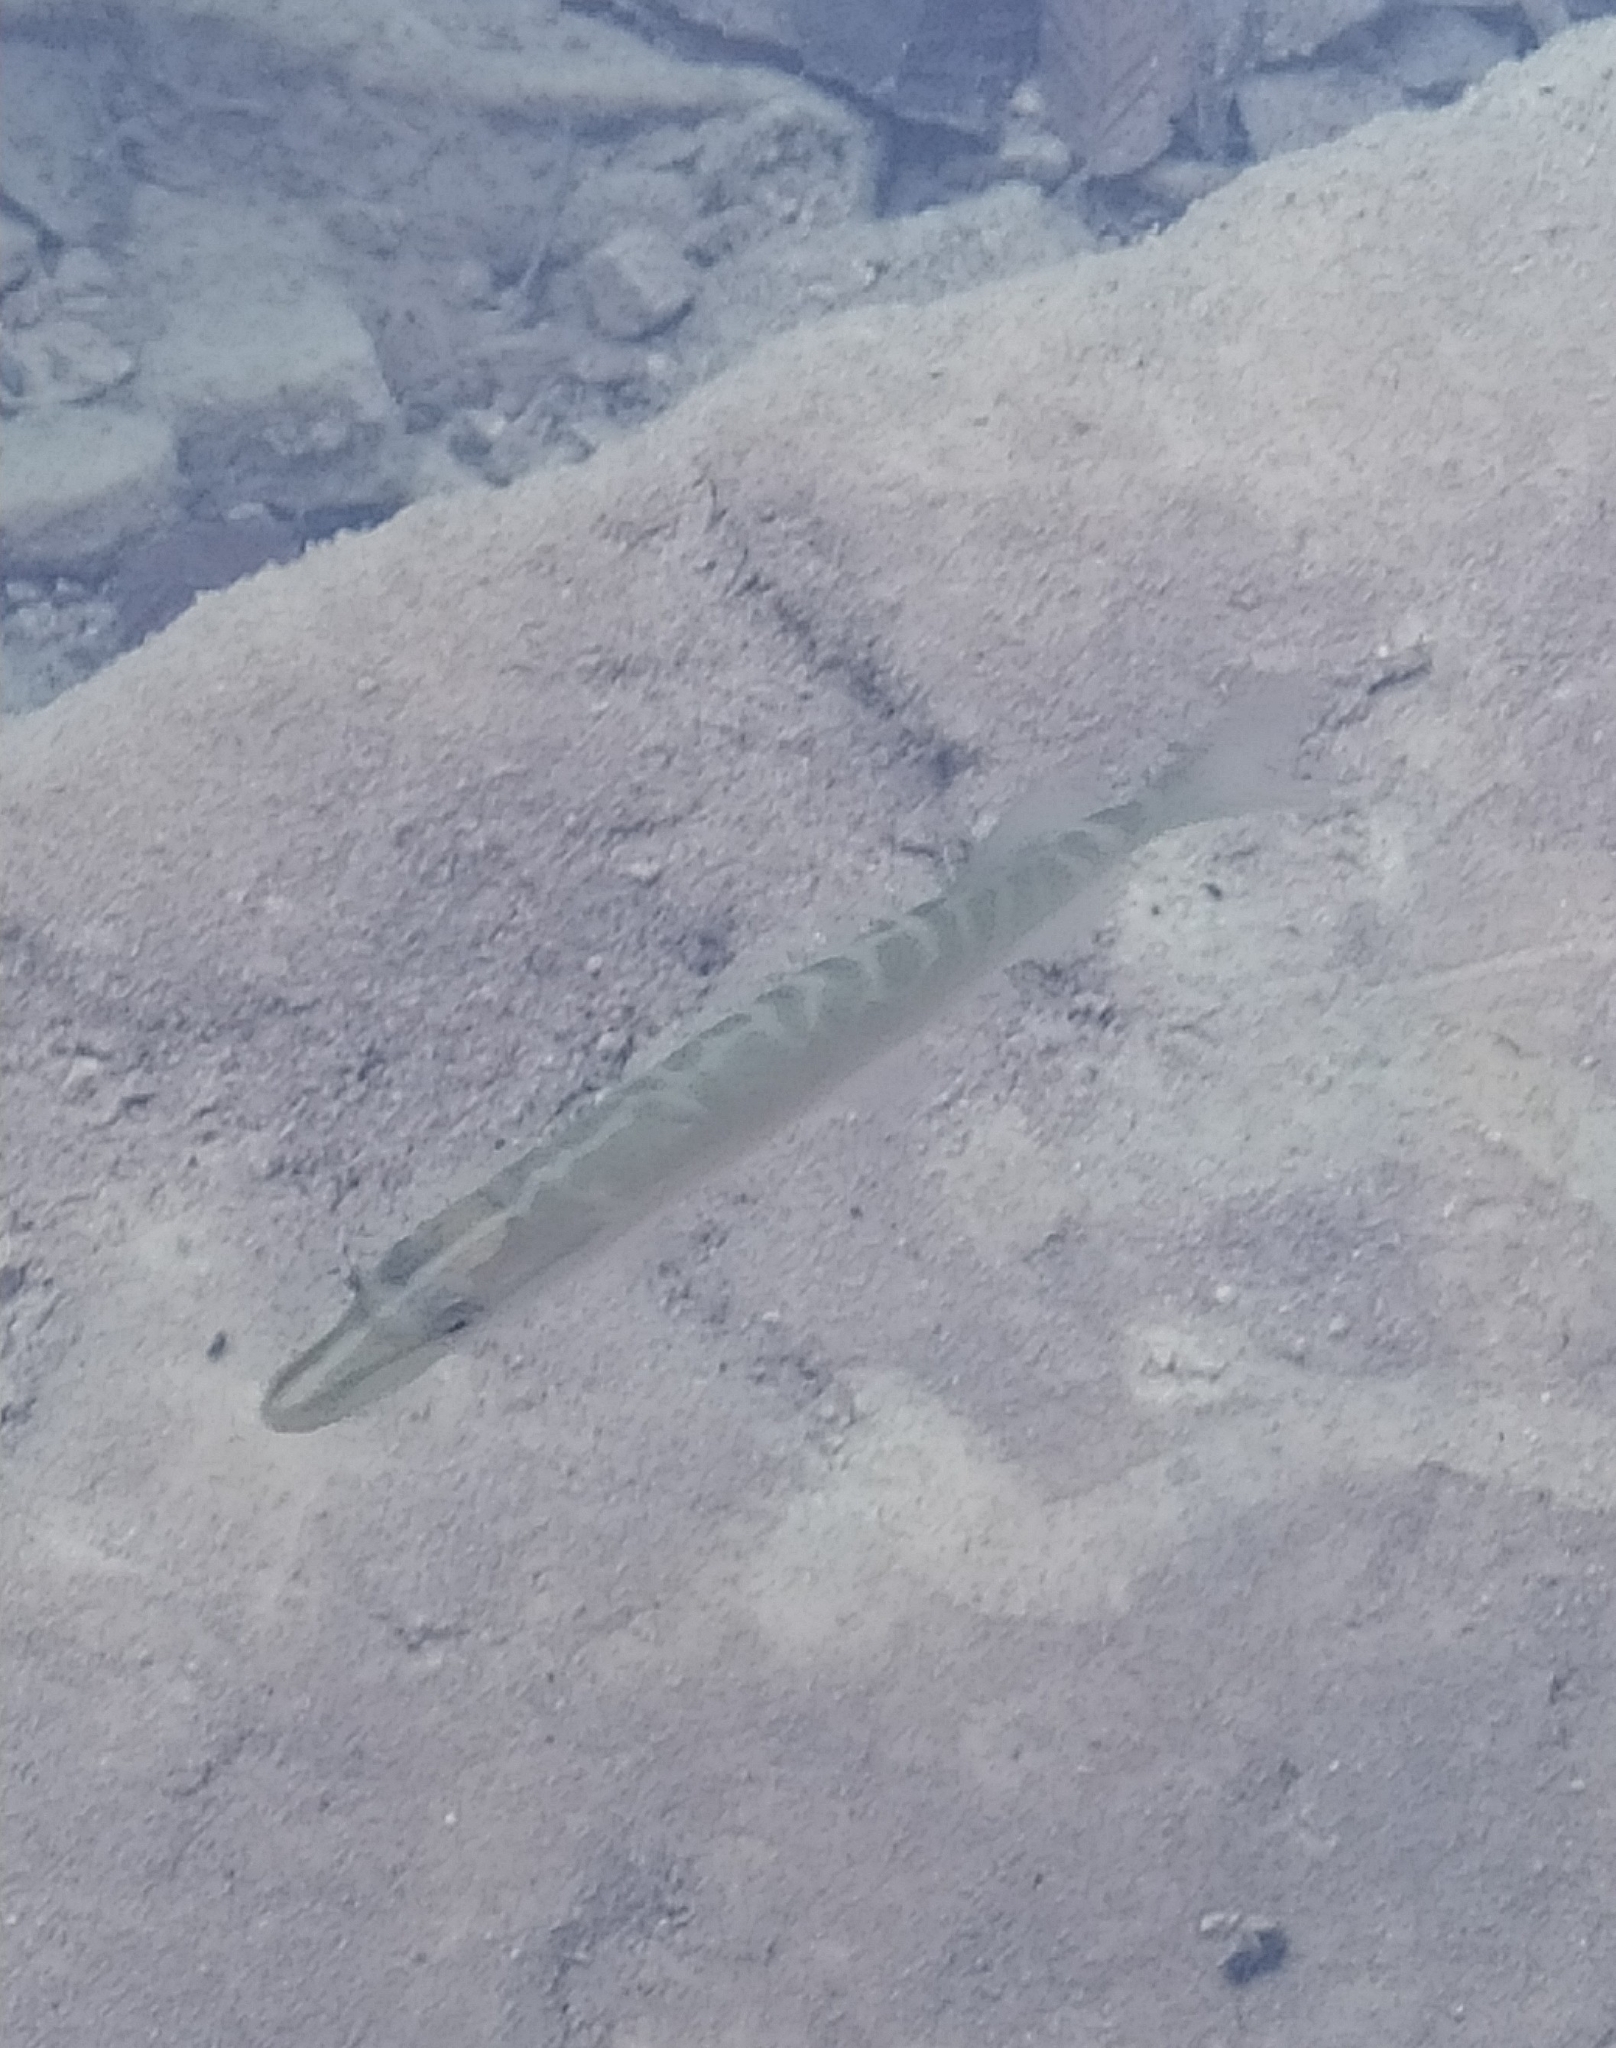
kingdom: Animalia
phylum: Chordata
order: Esociformes
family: Esocidae
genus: Esox
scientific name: Esox lucius
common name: Northern pike
